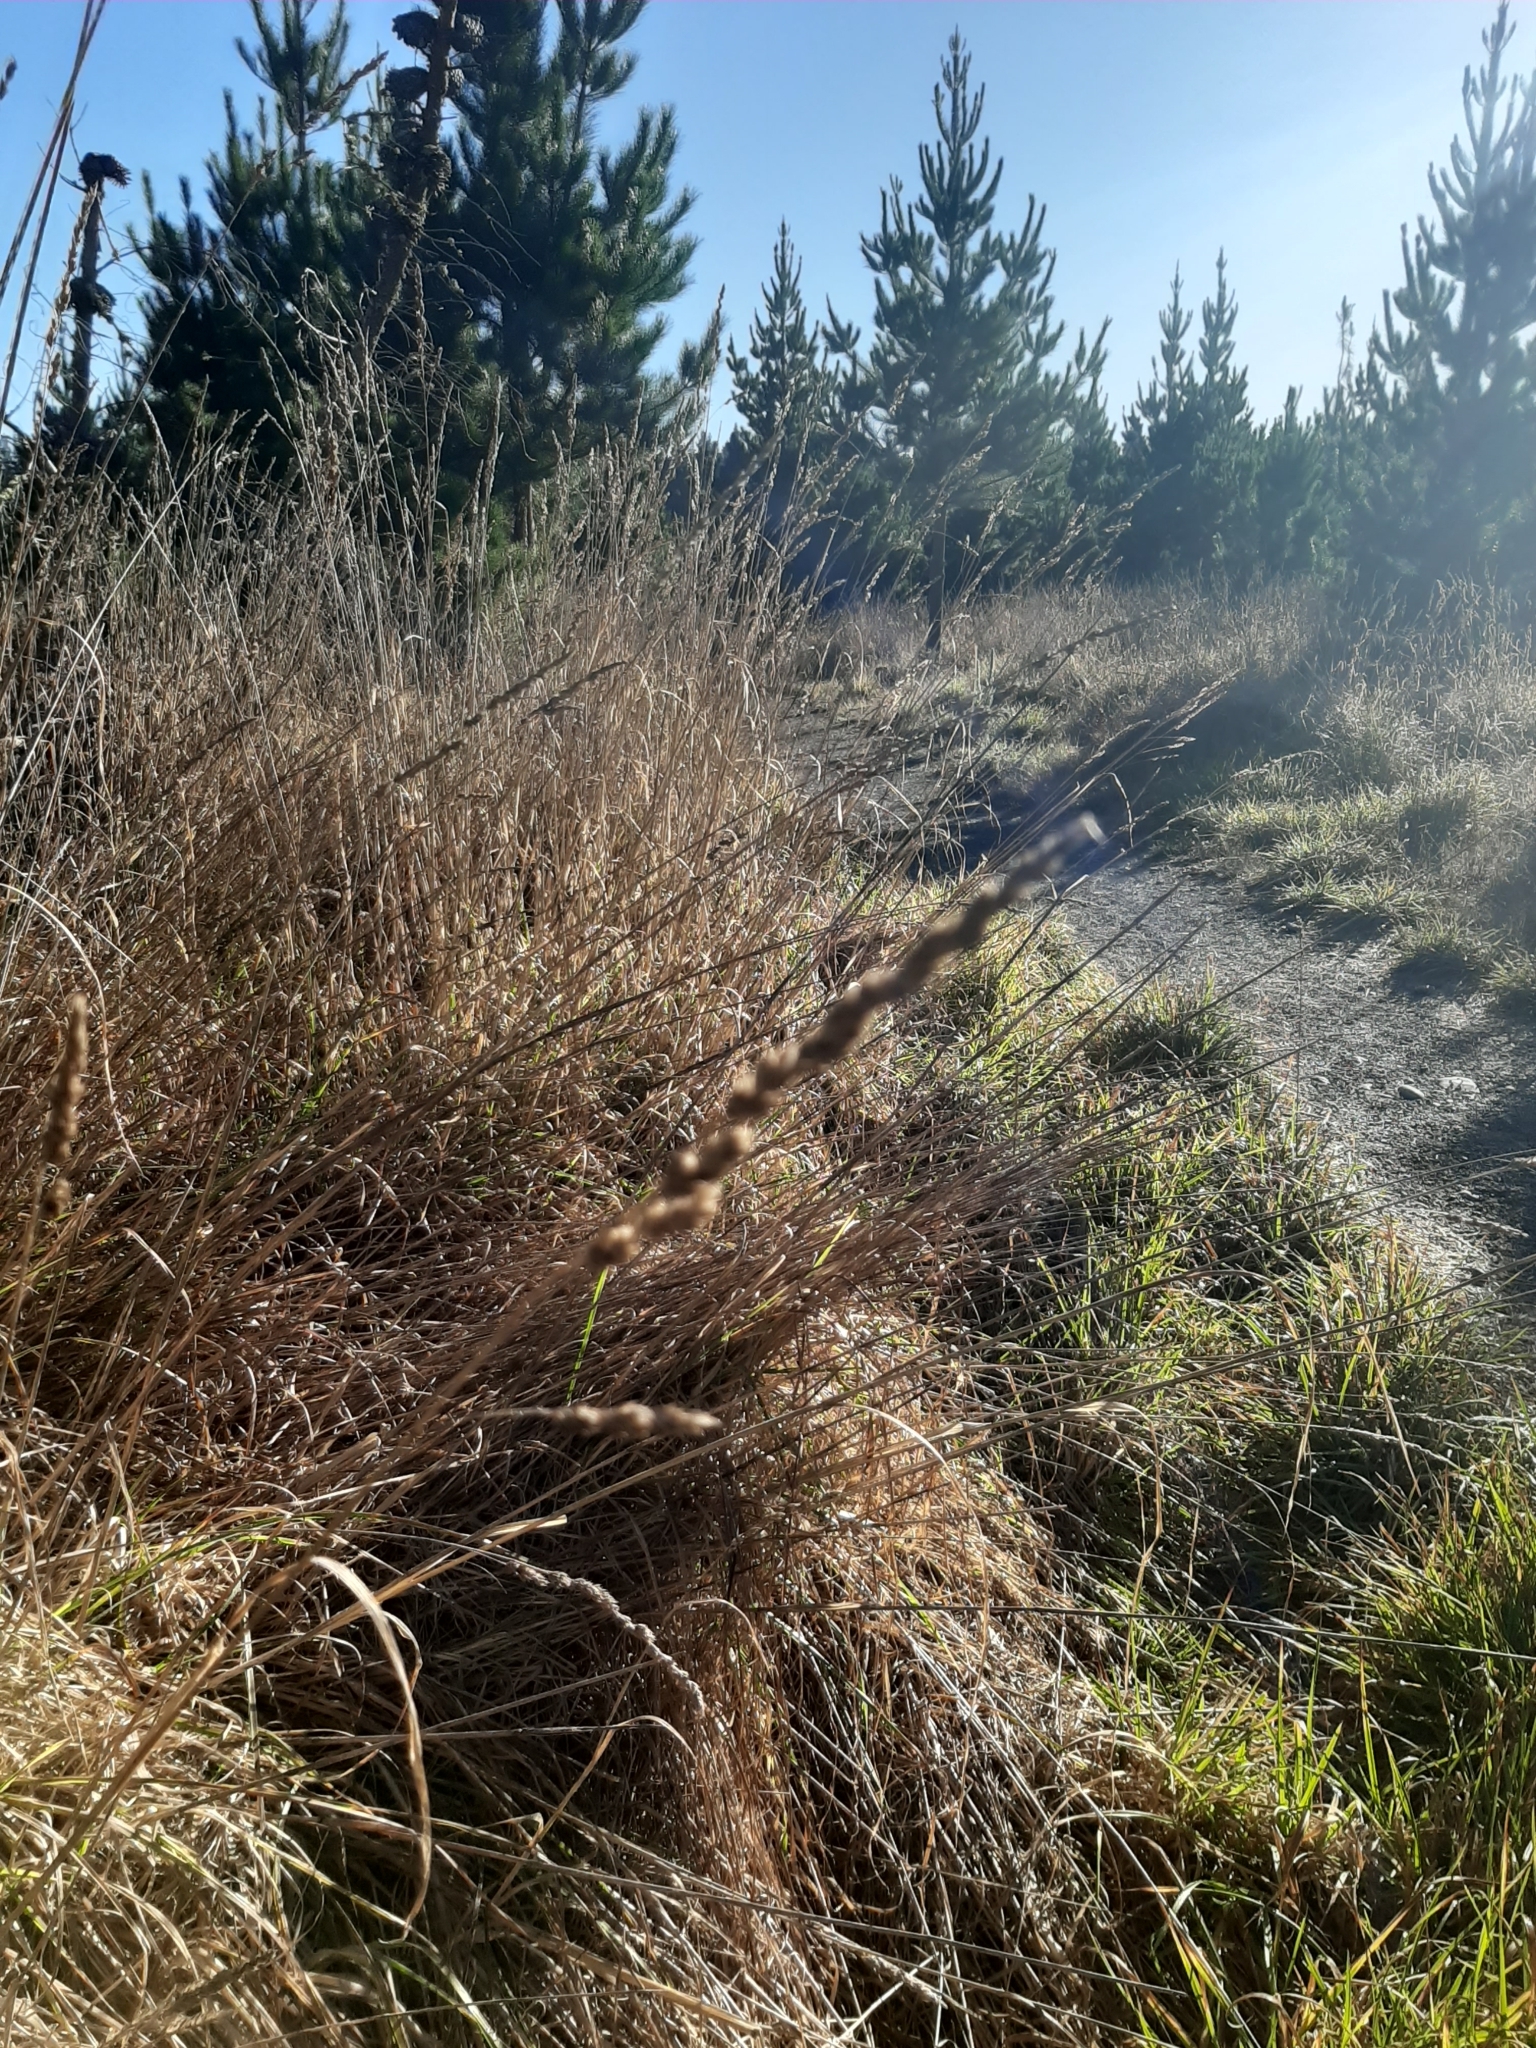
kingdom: Plantae
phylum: Tracheophyta
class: Liliopsida
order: Poales
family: Poaceae
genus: Dactylis
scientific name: Dactylis glomerata
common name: Orchardgrass
